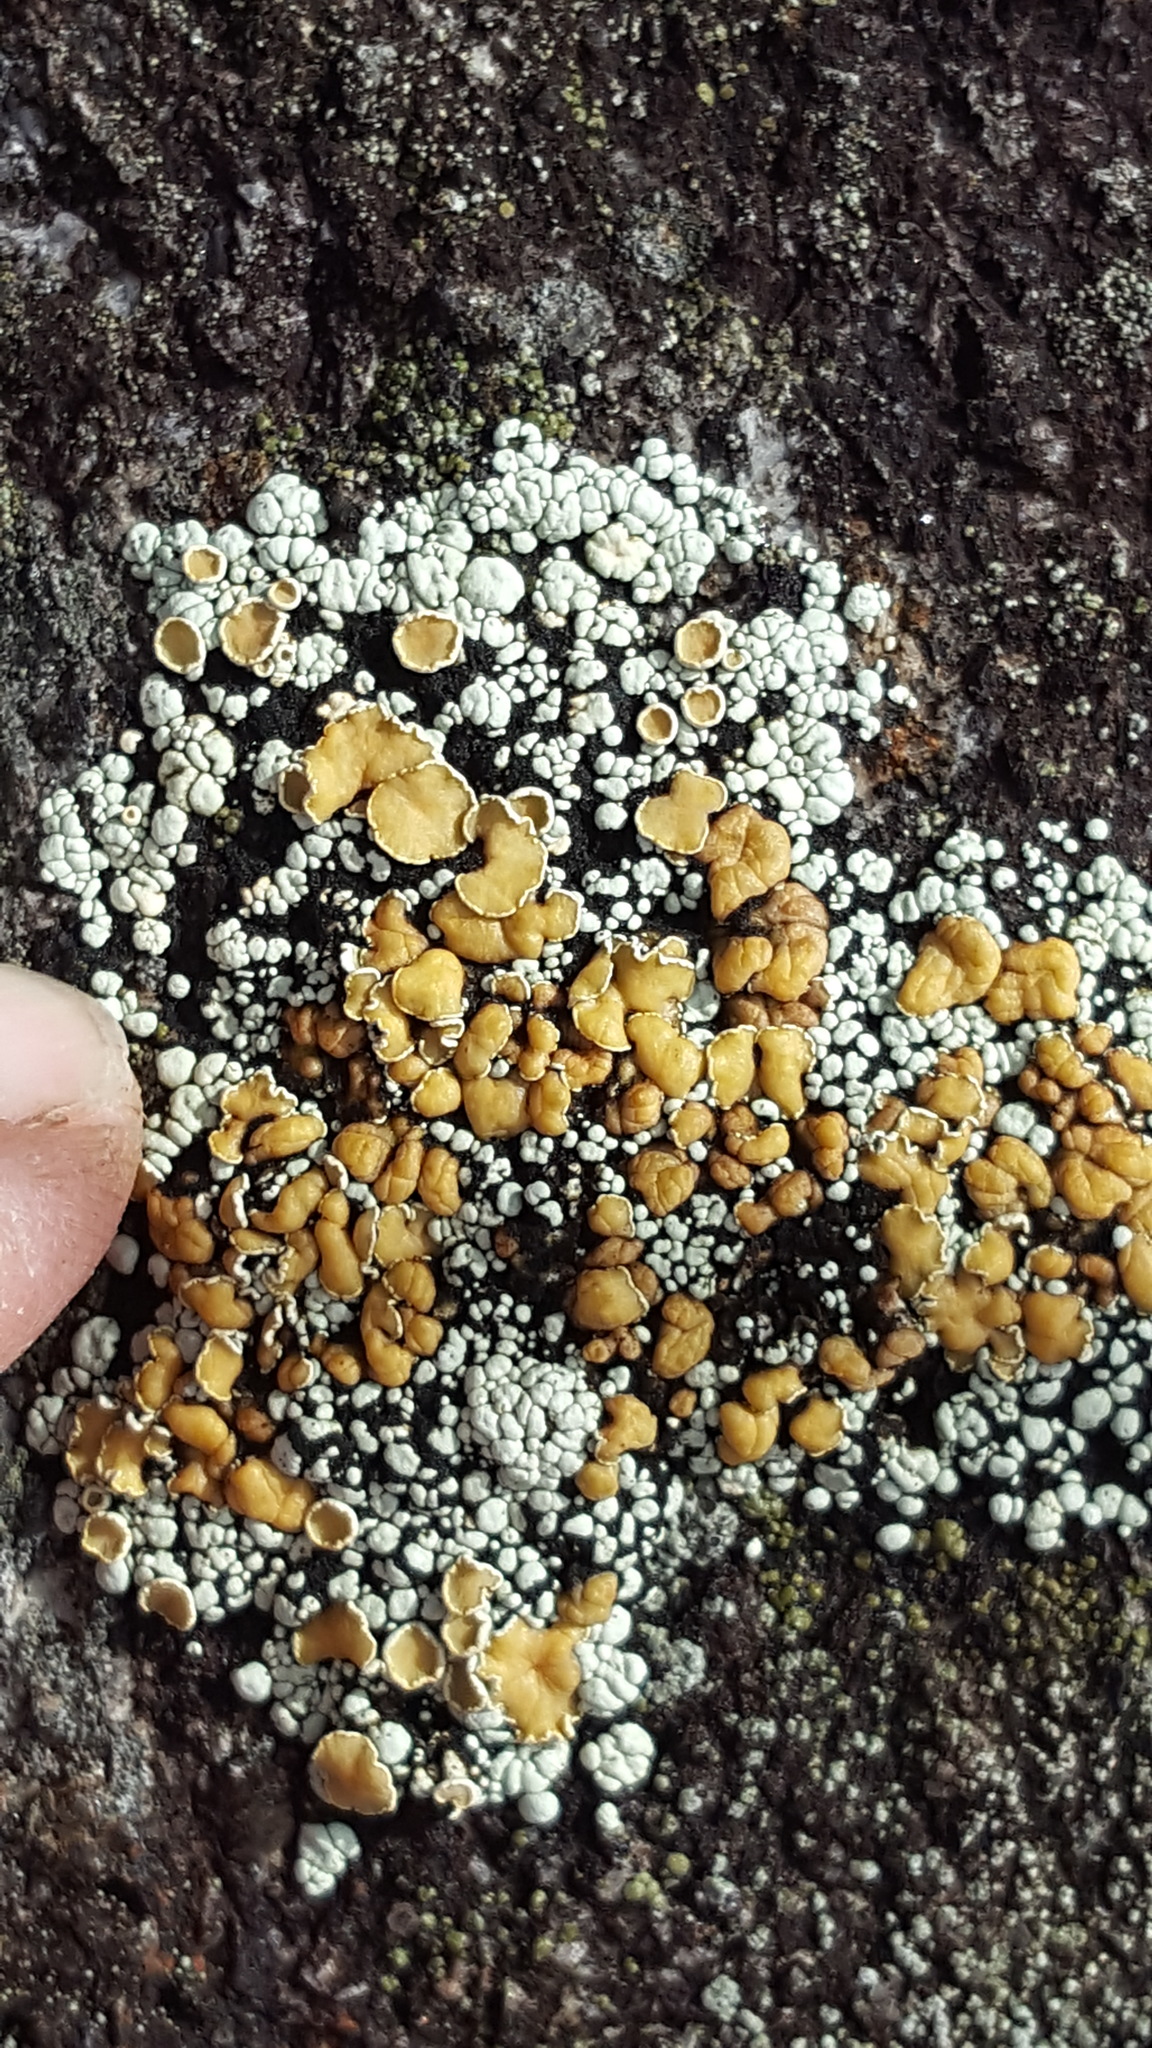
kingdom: Fungi
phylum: Ascomycota
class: Lecanoromycetes
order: Lecanorales
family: Lecanoraceae
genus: Omphalodina
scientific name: Omphalodina chrysoleuca
